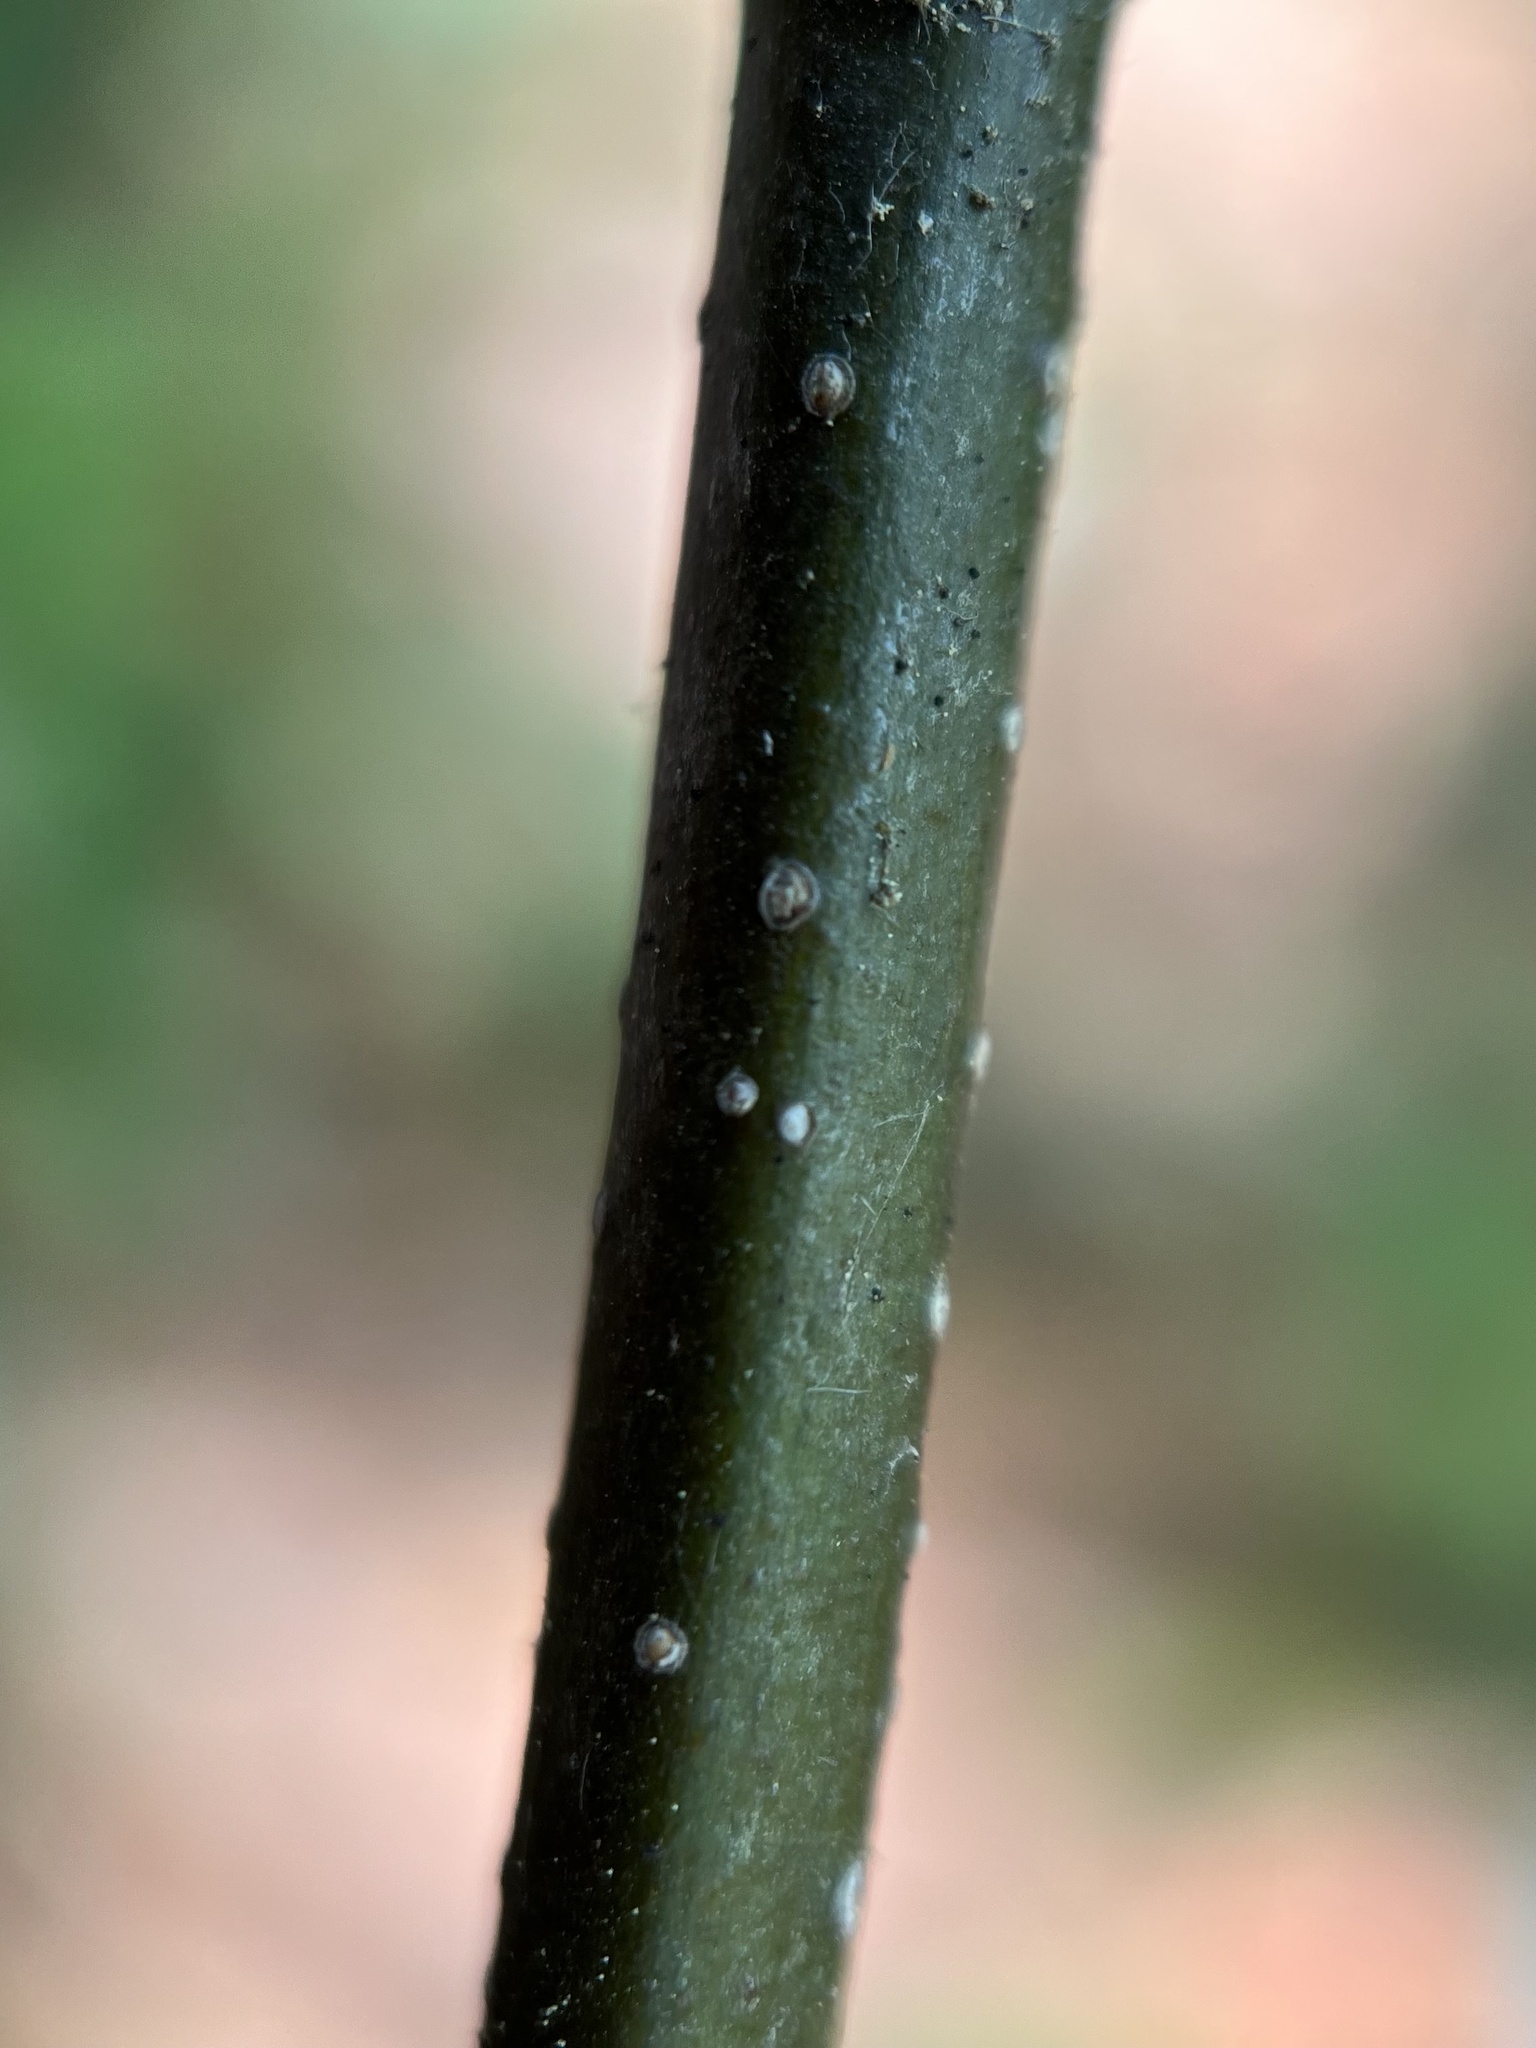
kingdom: Plantae
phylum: Tracheophyta
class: Magnoliopsida
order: Fagales
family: Fagaceae
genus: Castanea
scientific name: Castanea mollissima
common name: Chinese chestnut
